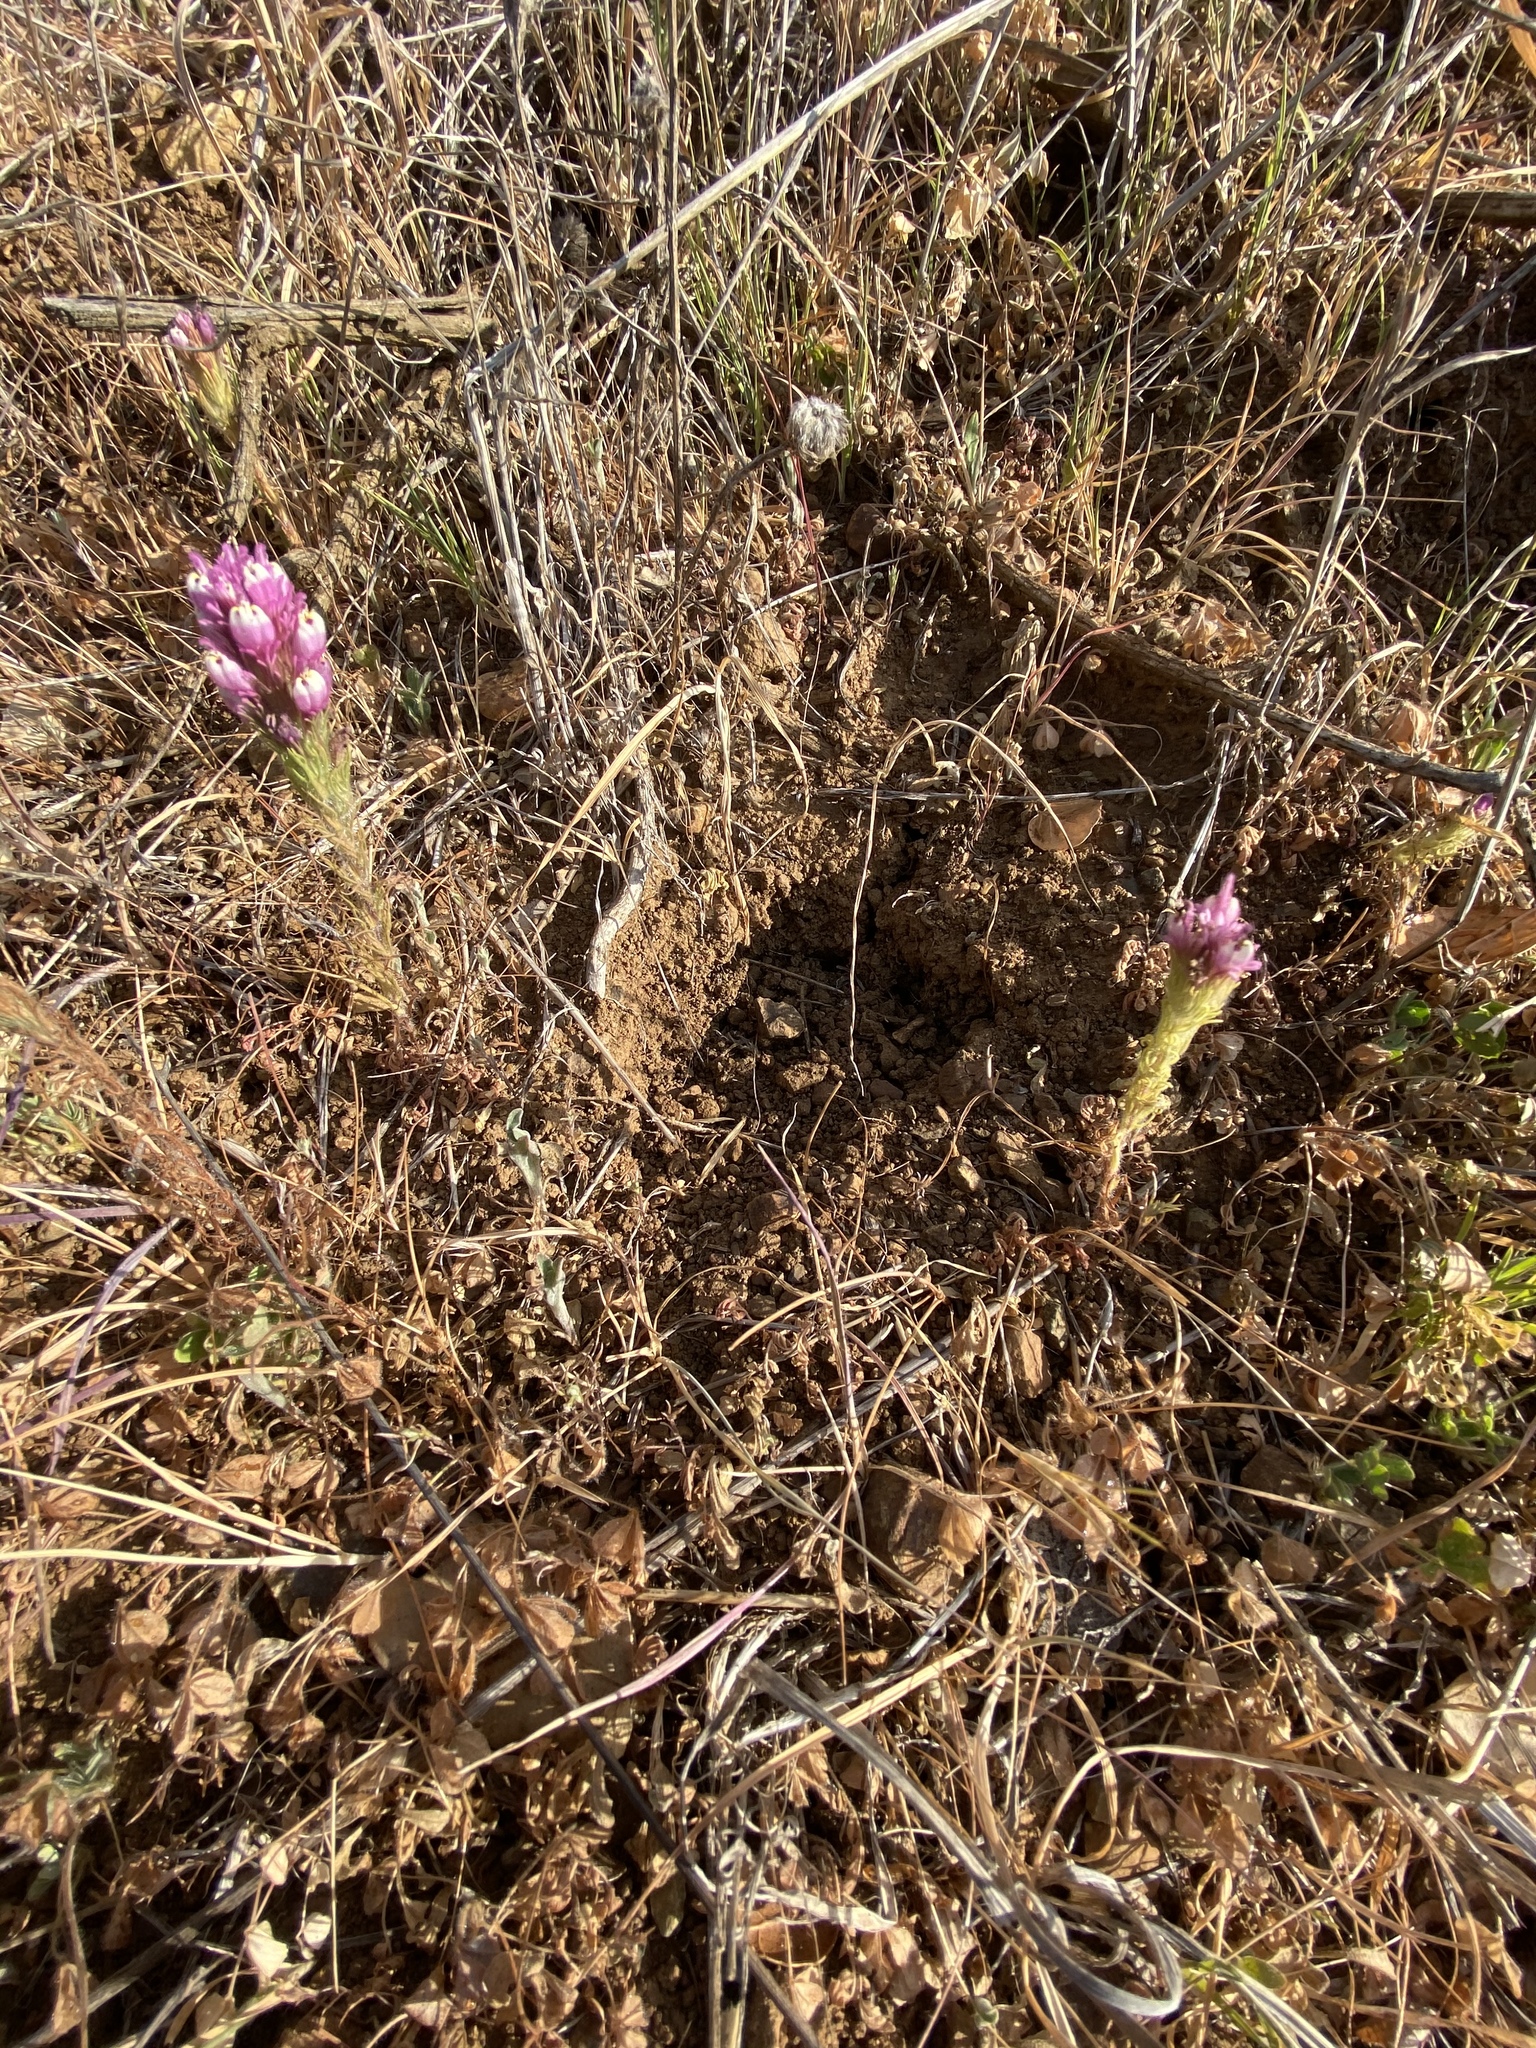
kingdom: Plantae
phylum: Tracheophyta
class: Magnoliopsida
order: Lamiales
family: Orobanchaceae
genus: Castilleja
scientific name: Castilleja exserta
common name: Purple owl-clover
